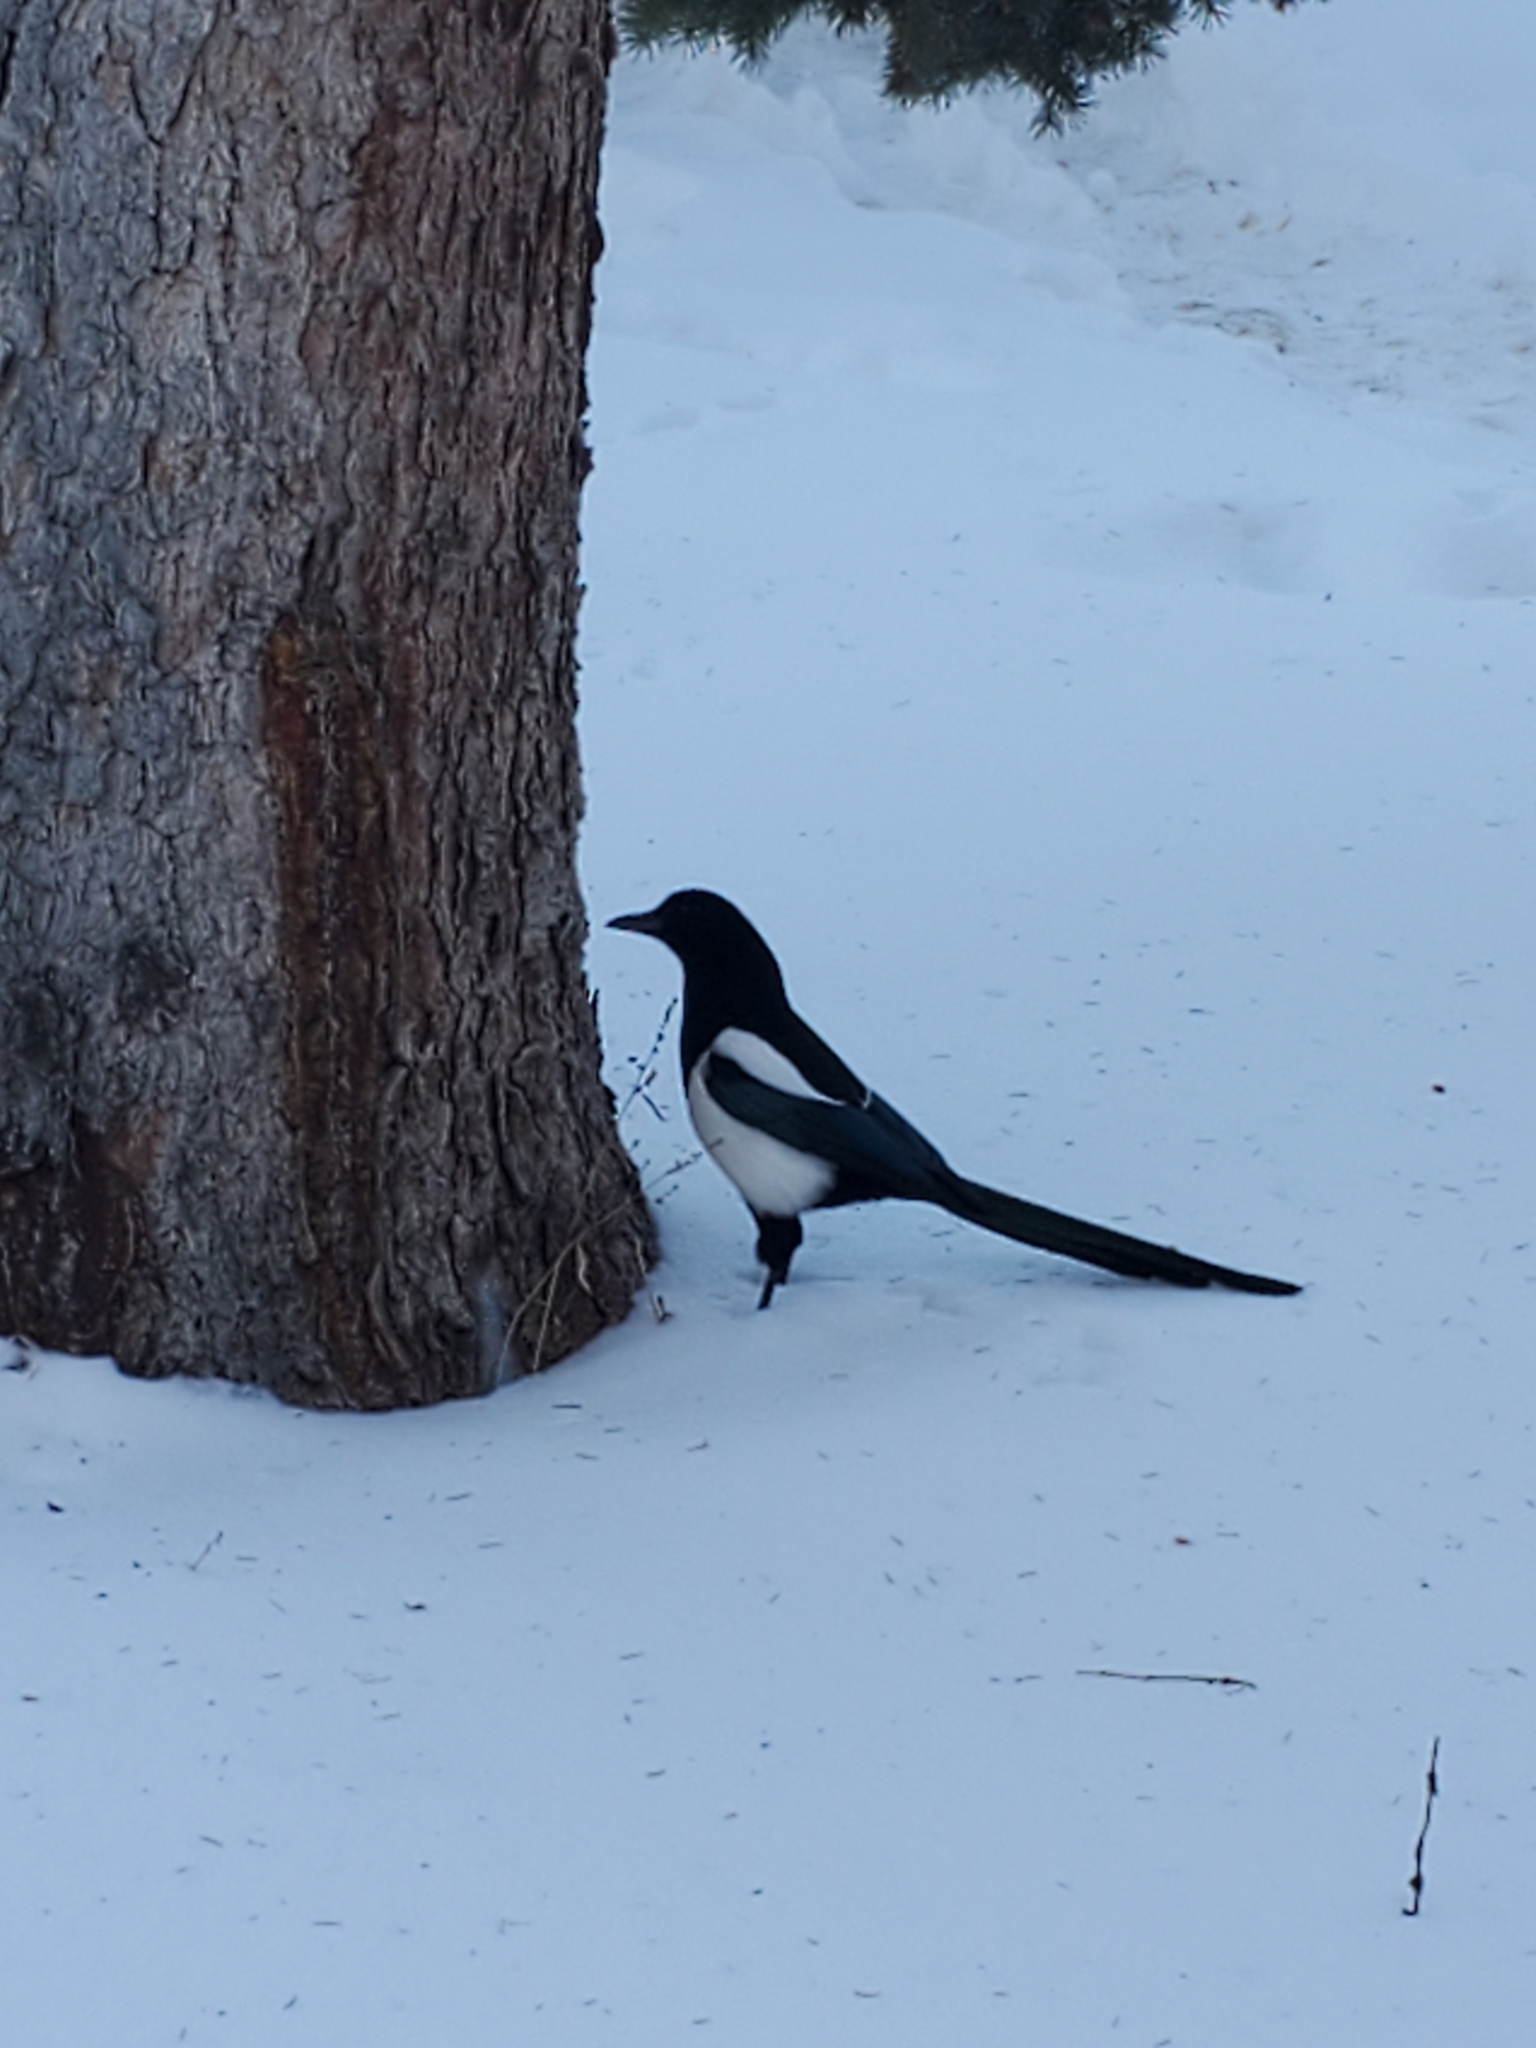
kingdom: Animalia
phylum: Chordata
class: Aves
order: Passeriformes
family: Corvidae
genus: Pica
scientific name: Pica hudsonia
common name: Black-billed magpie
